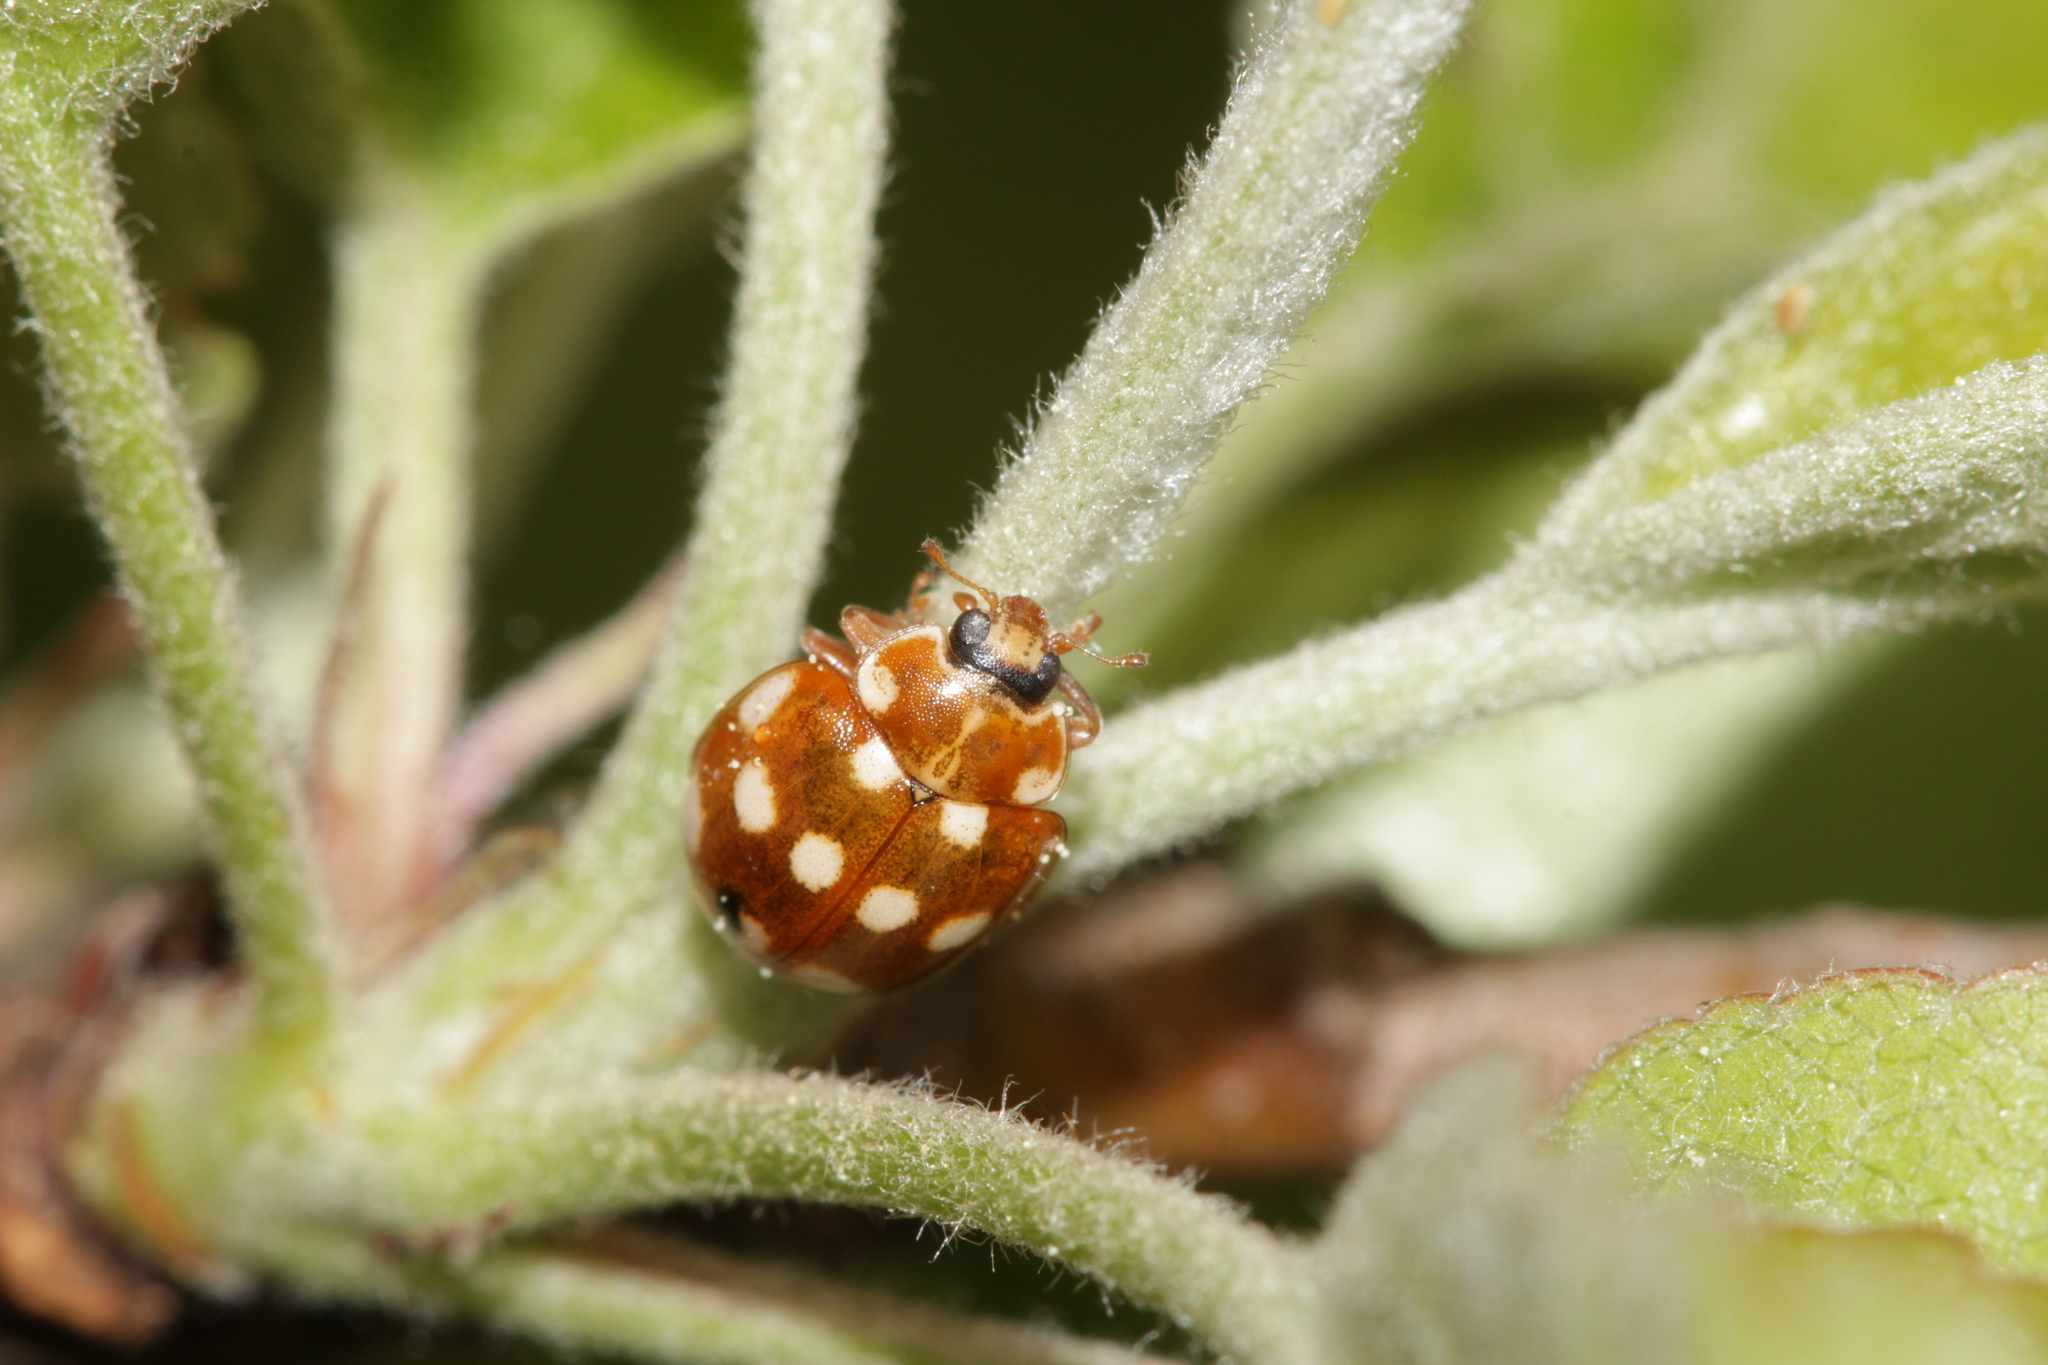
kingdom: Animalia
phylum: Arthropoda
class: Insecta
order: Coleoptera
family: Coccinellidae
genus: Calvia
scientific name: Calvia quatuordecimguttata
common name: Cream-spot ladybird
